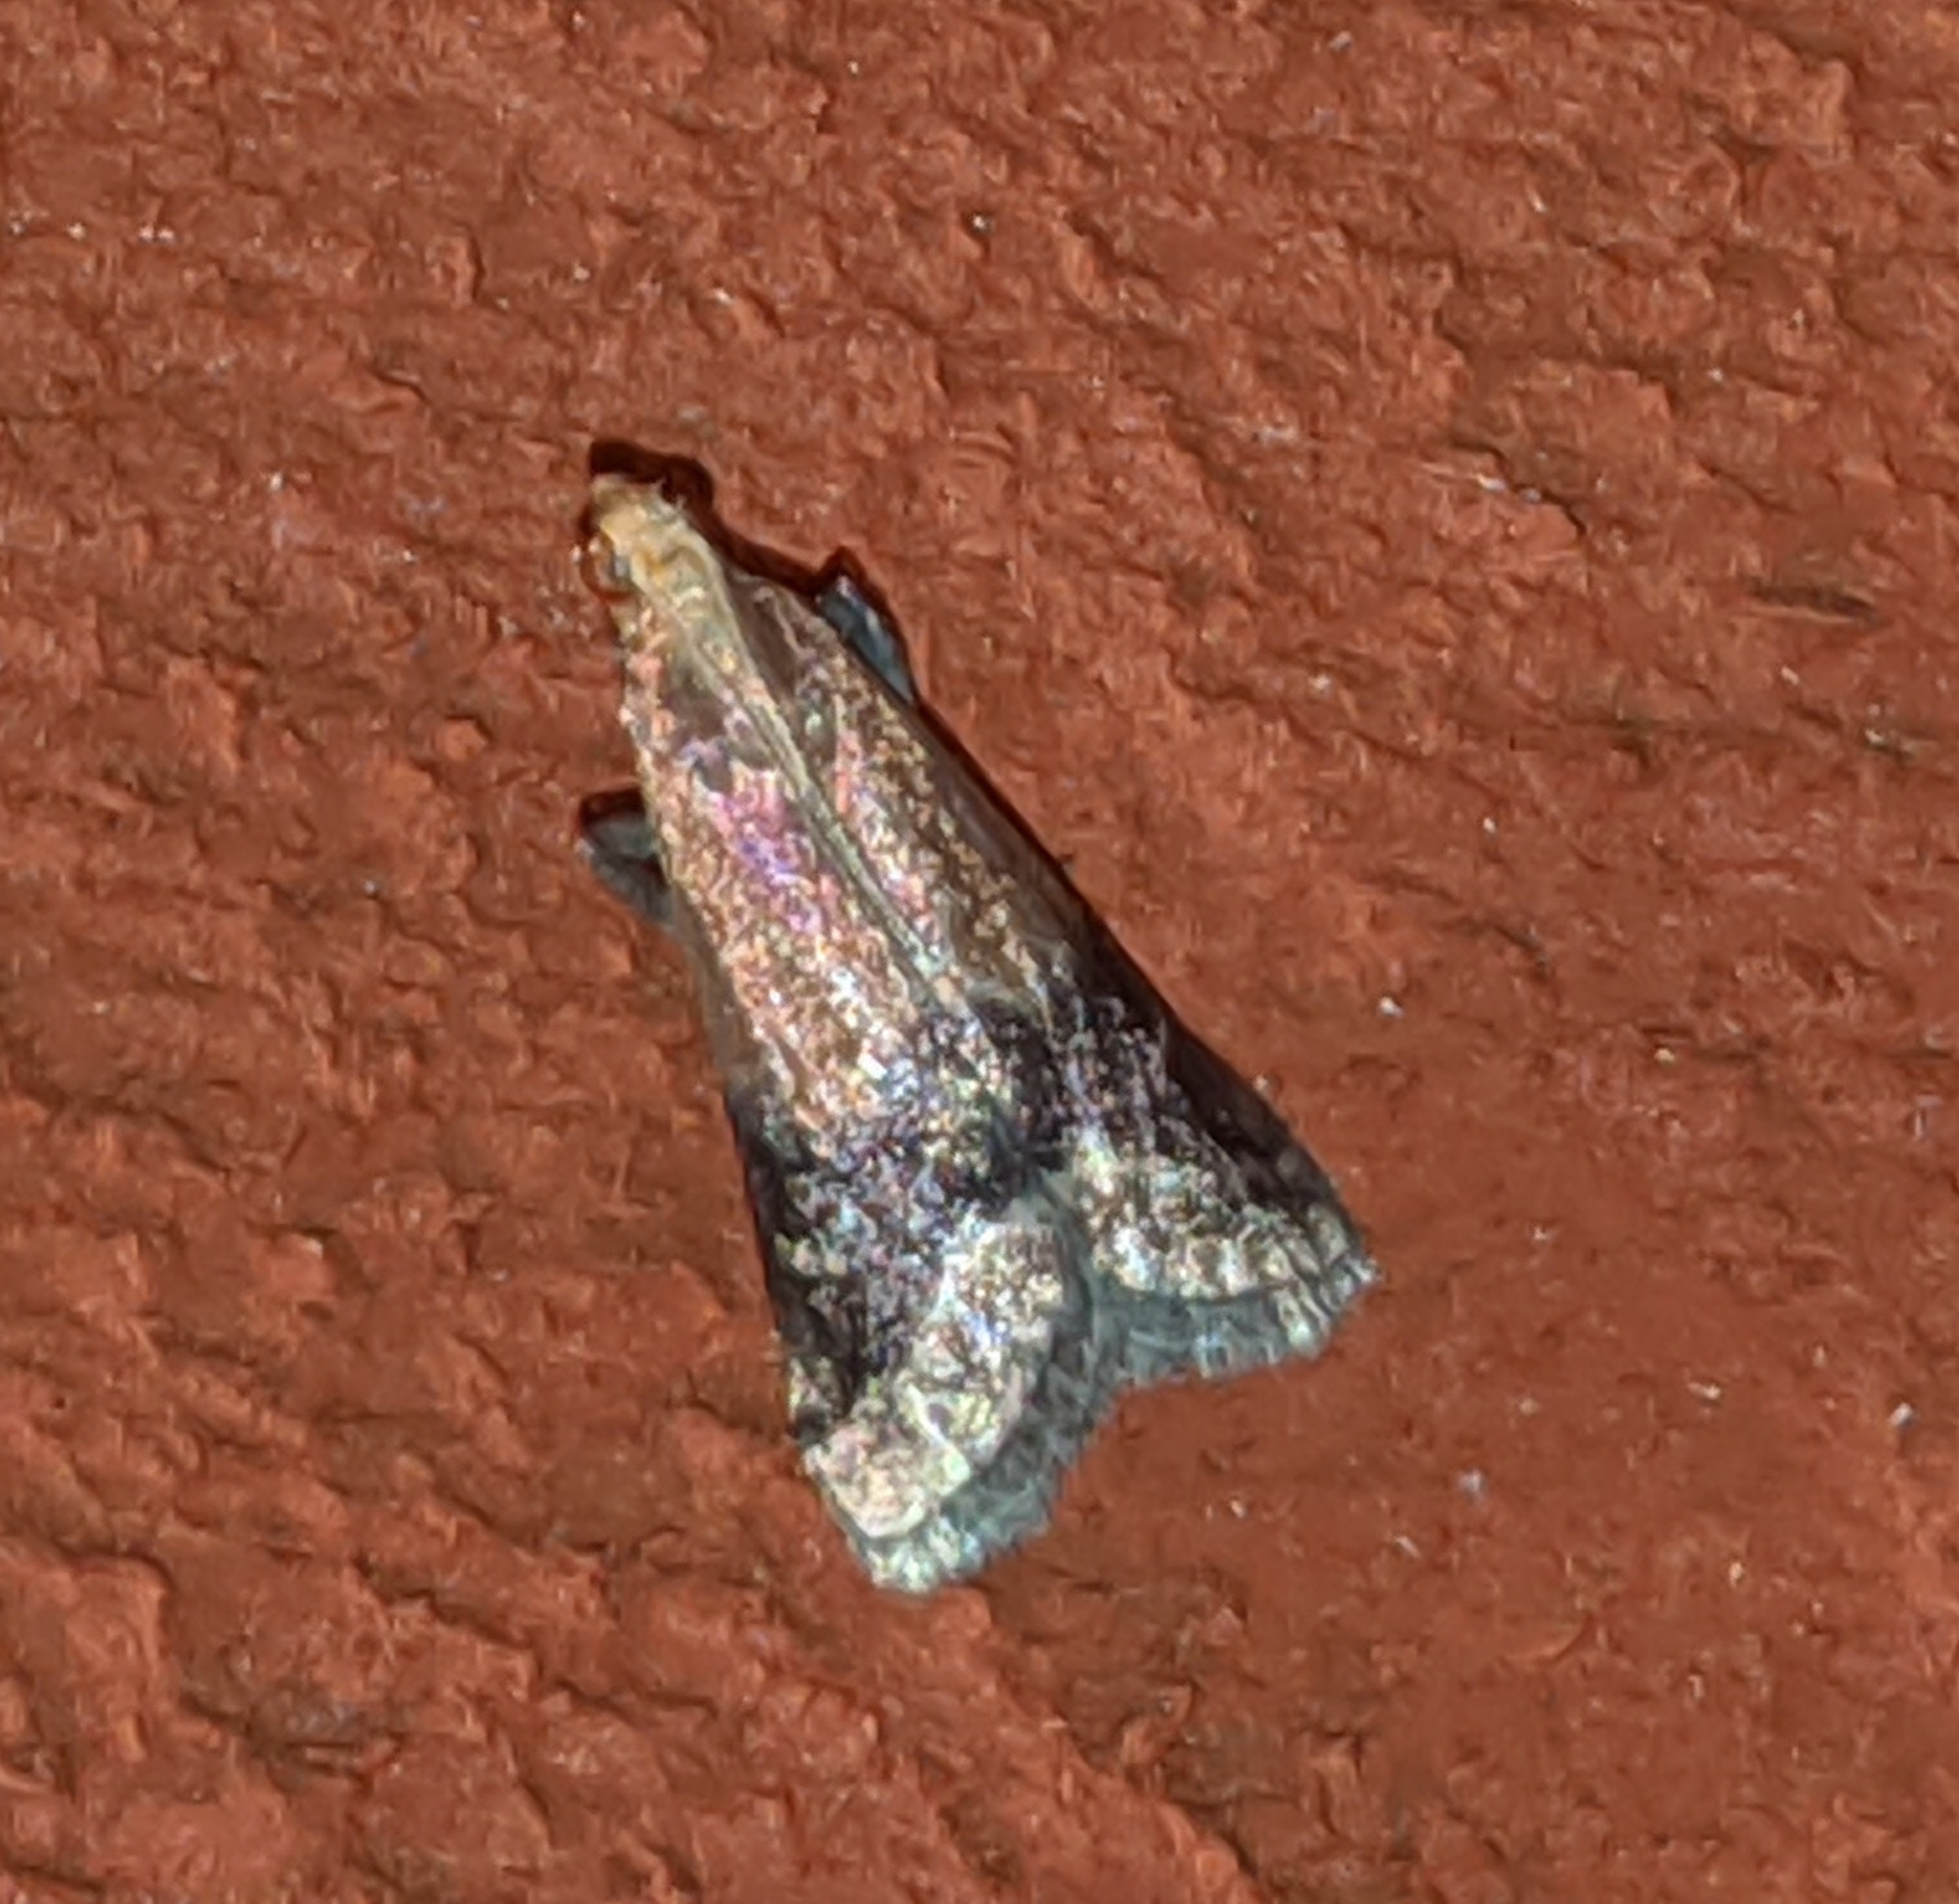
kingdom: Animalia
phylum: Arthropoda
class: Insecta
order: Lepidoptera
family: Pyralidae
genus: Eulogia
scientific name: Eulogia ochrifrontella
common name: Broad-banded eulogia moth
